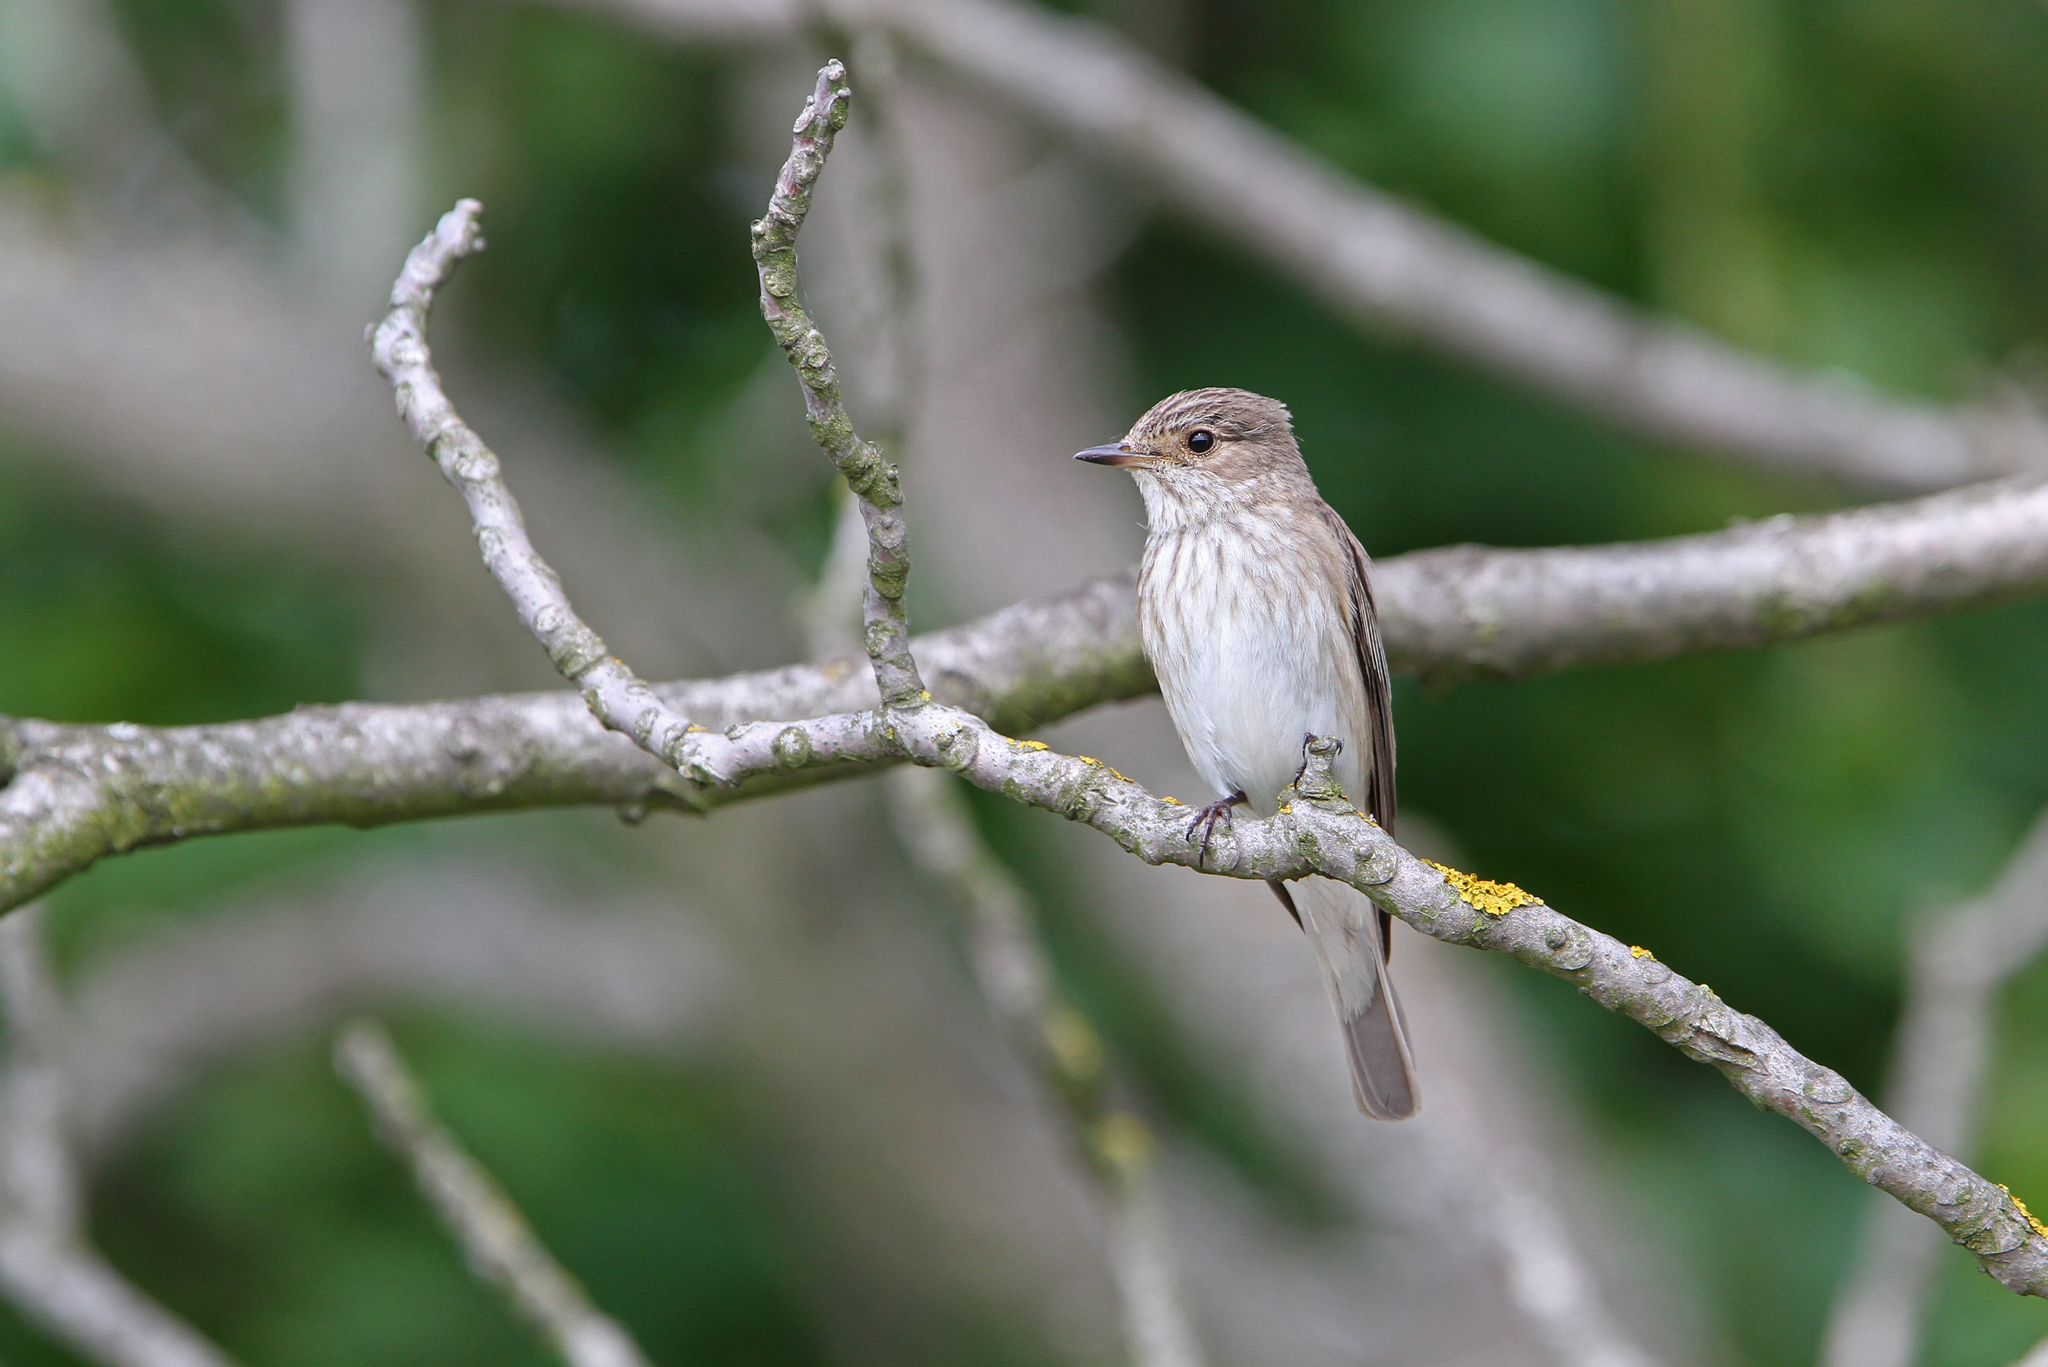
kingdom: Animalia
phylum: Chordata
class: Aves
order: Passeriformes
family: Muscicapidae
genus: Muscicapa
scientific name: Muscicapa striata
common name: Spotted flycatcher
